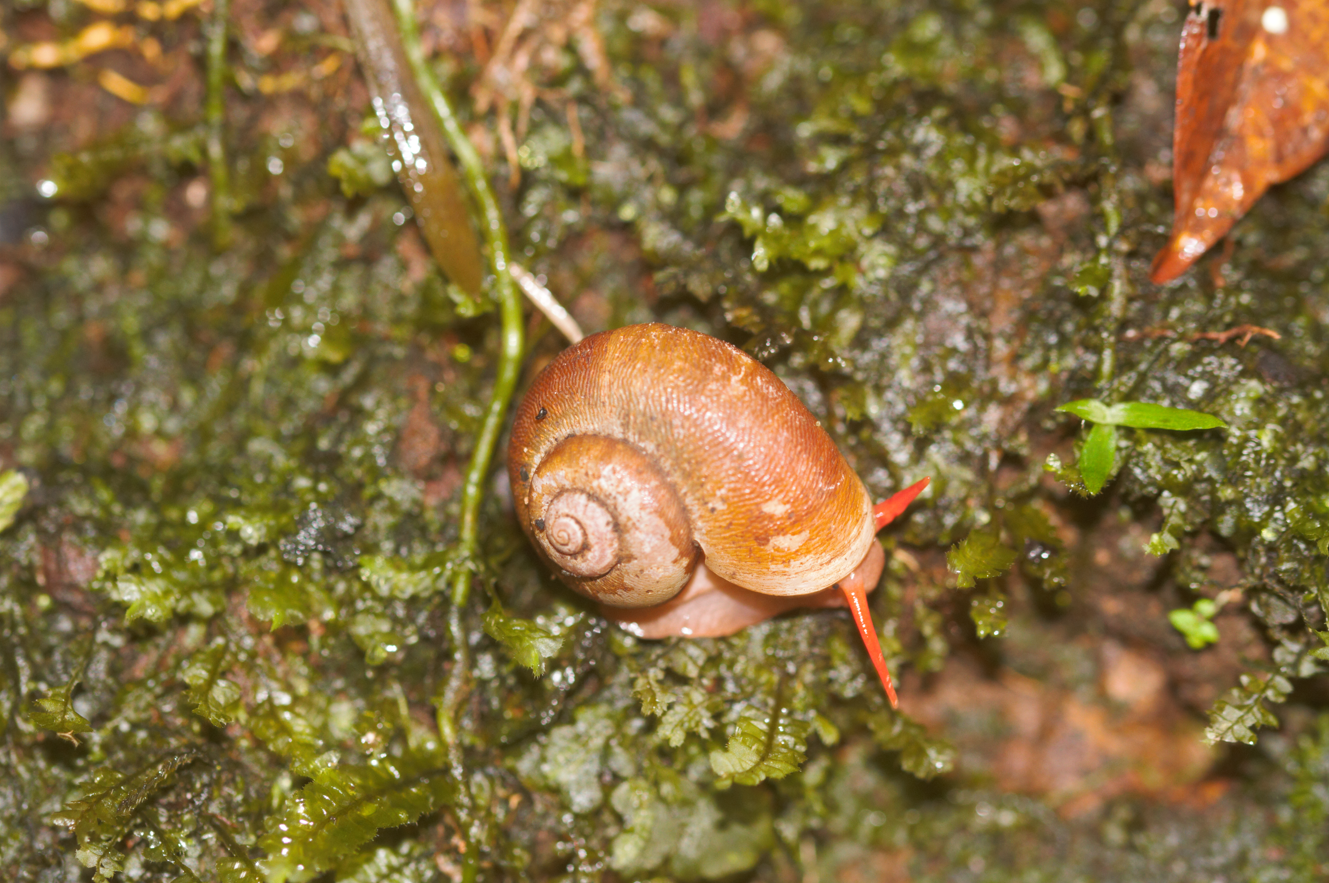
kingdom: Animalia
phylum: Mollusca
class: Gastropoda
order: Architaenioglossa
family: Neocyclotidae
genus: Neocyclotus
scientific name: Neocyclotus cayennensis
